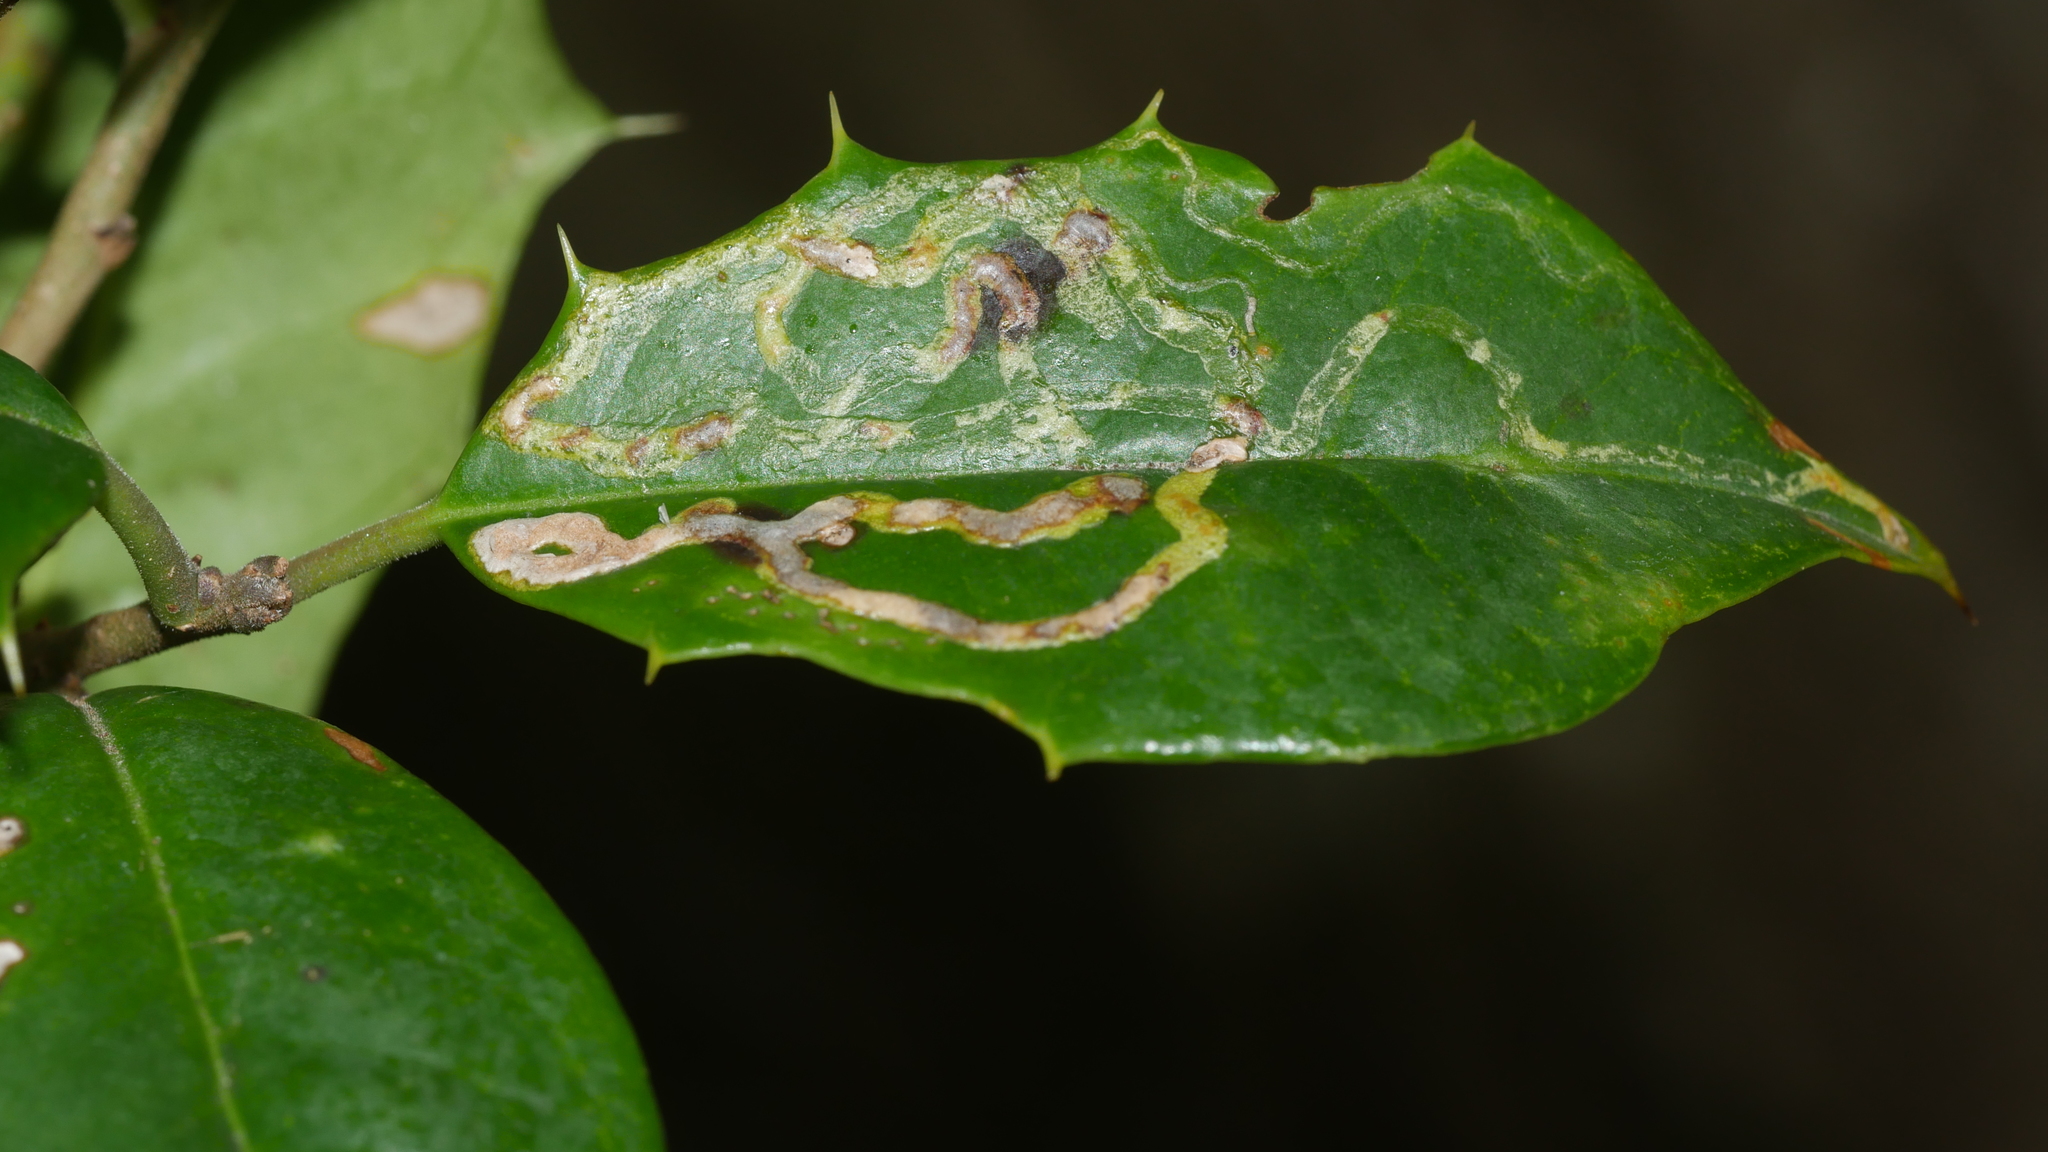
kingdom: Animalia
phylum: Arthropoda
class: Insecta
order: Diptera
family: Agromyzidae
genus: Phytomyza
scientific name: Phytomyza opacae
